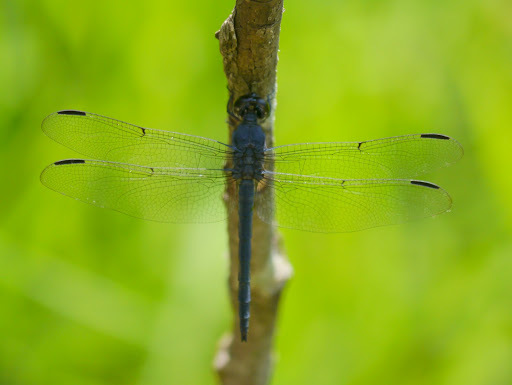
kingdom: Animalia
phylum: Arthropoda
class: Insecta
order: Odonata
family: Libellulidae
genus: Libellula
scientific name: Libellula incesta
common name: Slaty skimmer
